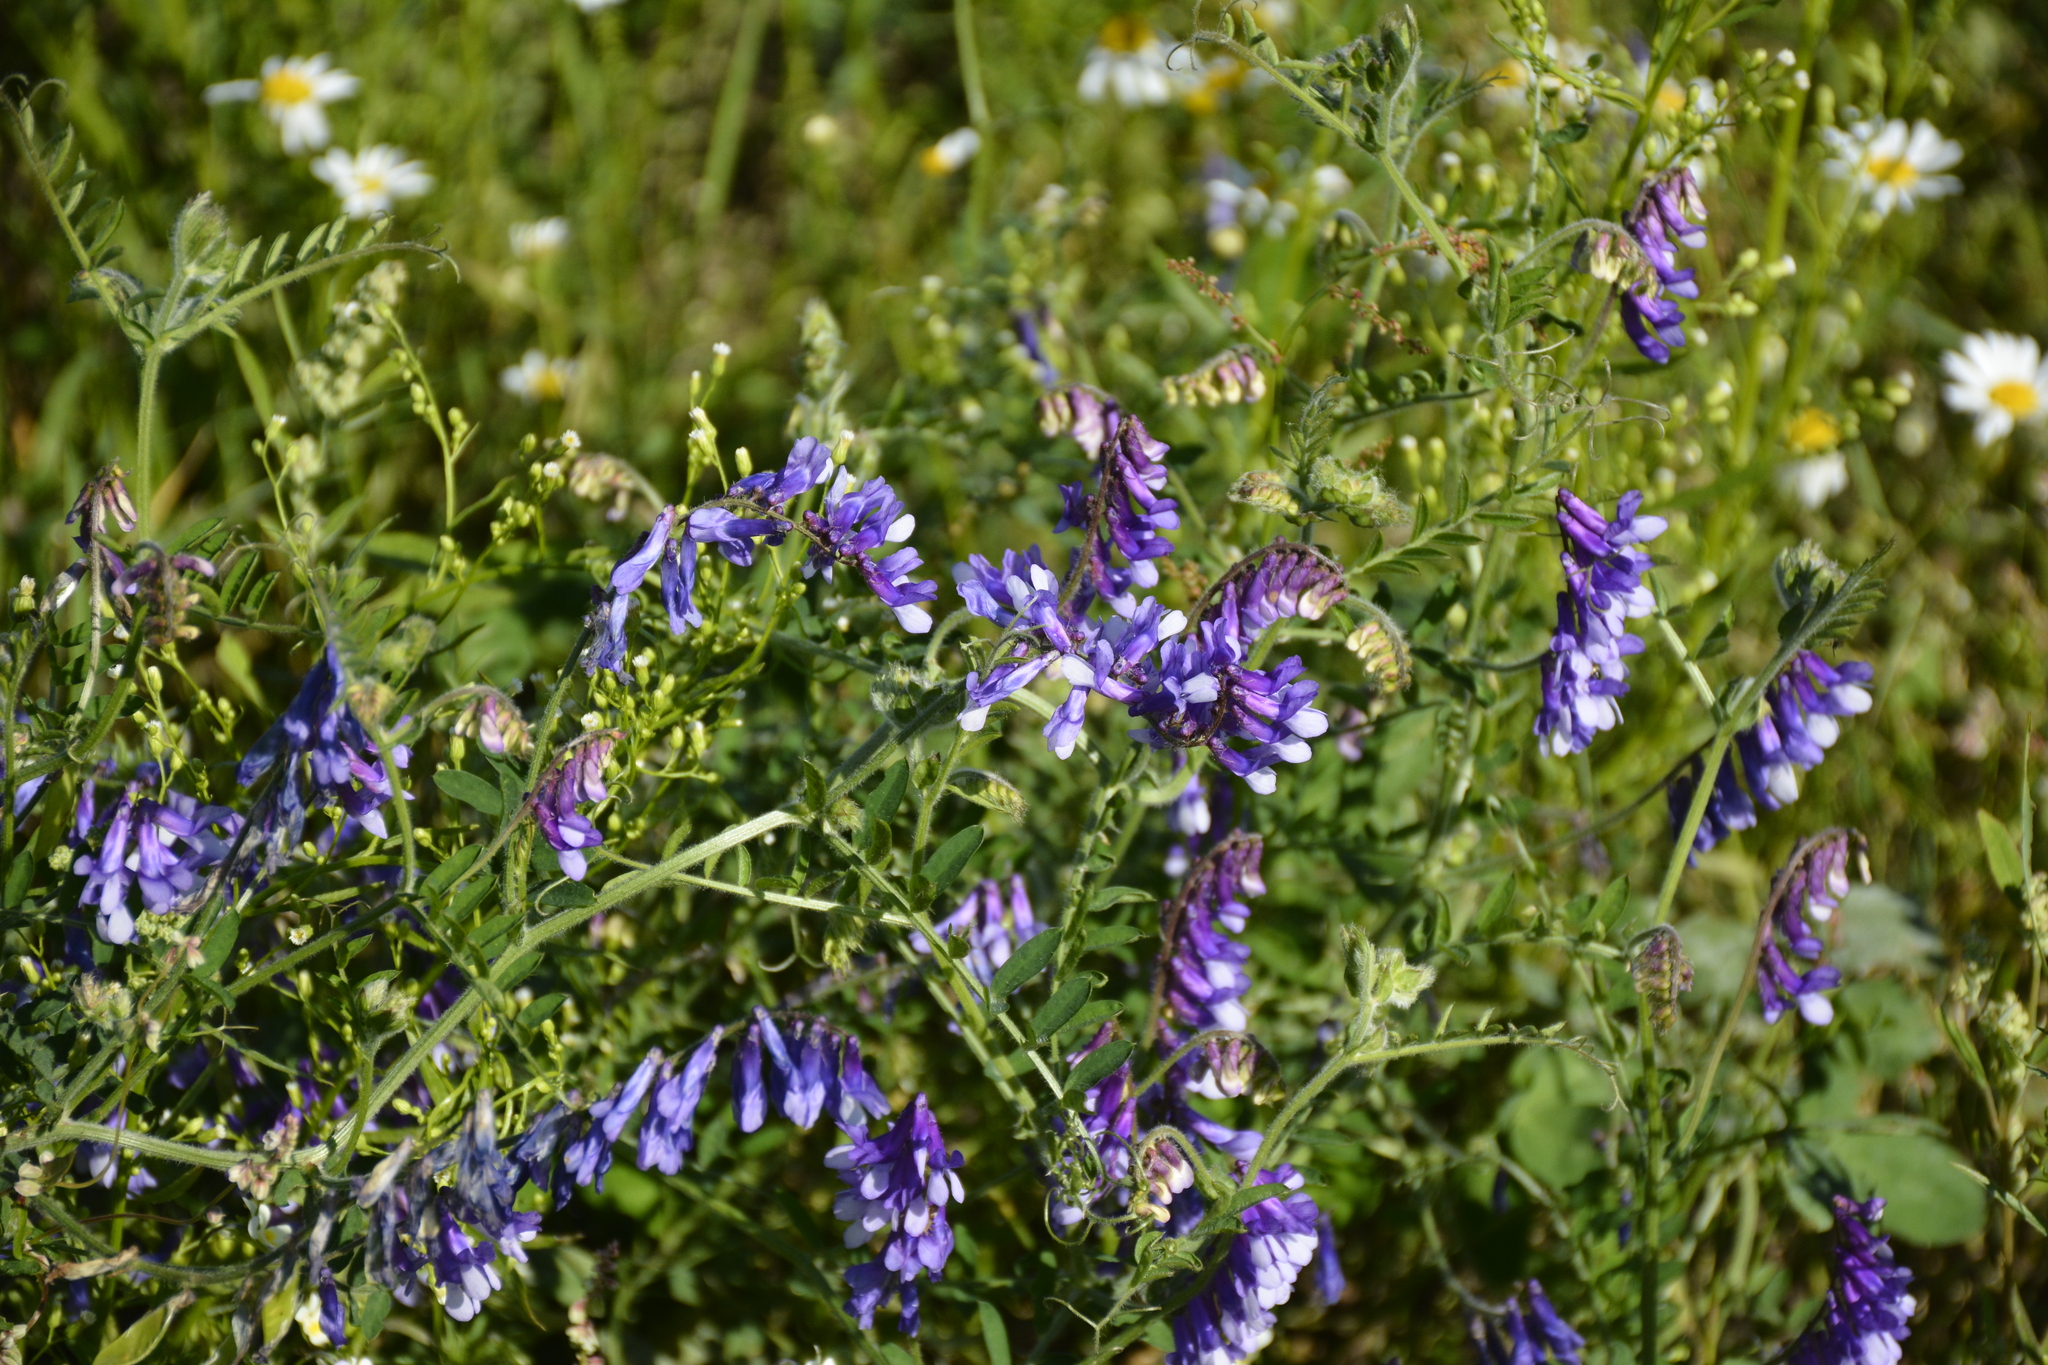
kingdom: Plantae
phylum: Tracheophyta
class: Magnoliopsida
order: Fabales
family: Fabaceae
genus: Vicia
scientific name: Vicia villosa
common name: Fodder vetch
